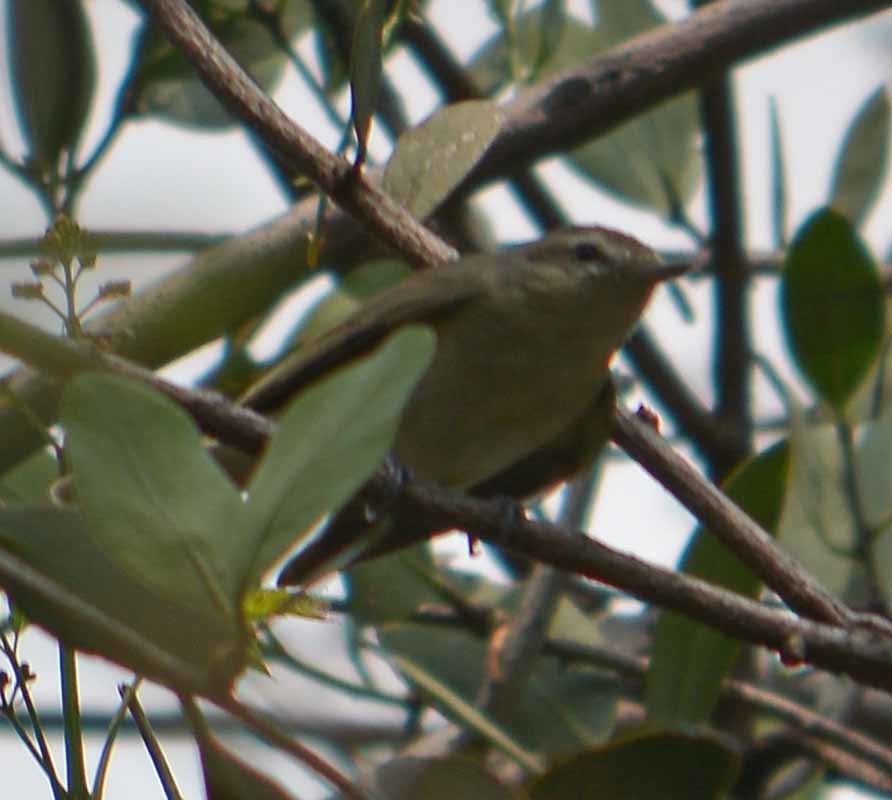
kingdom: Animalia
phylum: Chordata
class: Aves
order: Passeriformes
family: Vireonidae
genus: Vireo
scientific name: Vireo gilvus
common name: Warbling vireo
